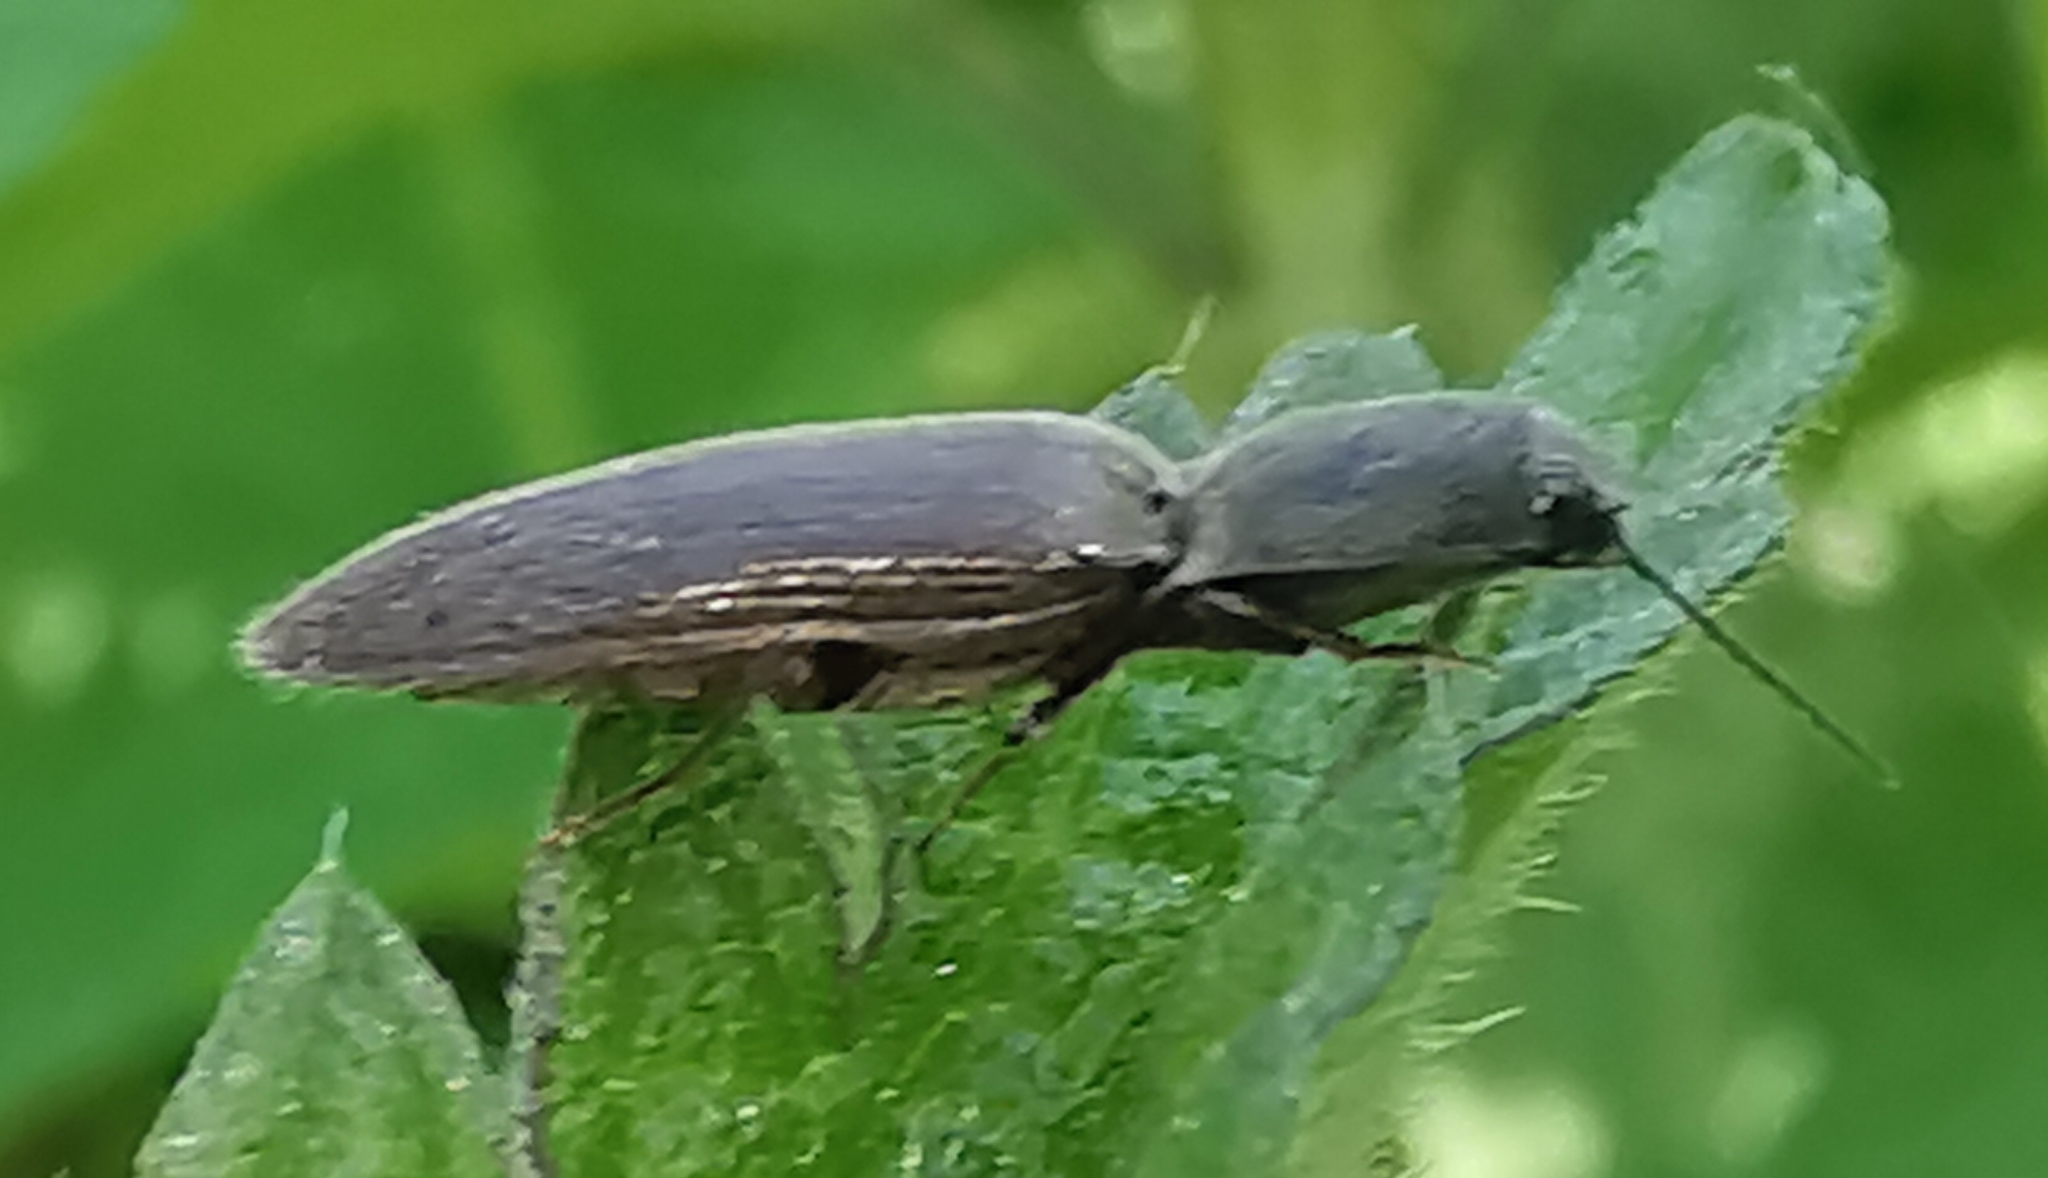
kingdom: Animalia
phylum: Arthropoda
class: Insecta
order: Coleoptera
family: Elateridae
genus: Athous
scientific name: Athous haemorrhoidalis
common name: Red-brown click beetle
